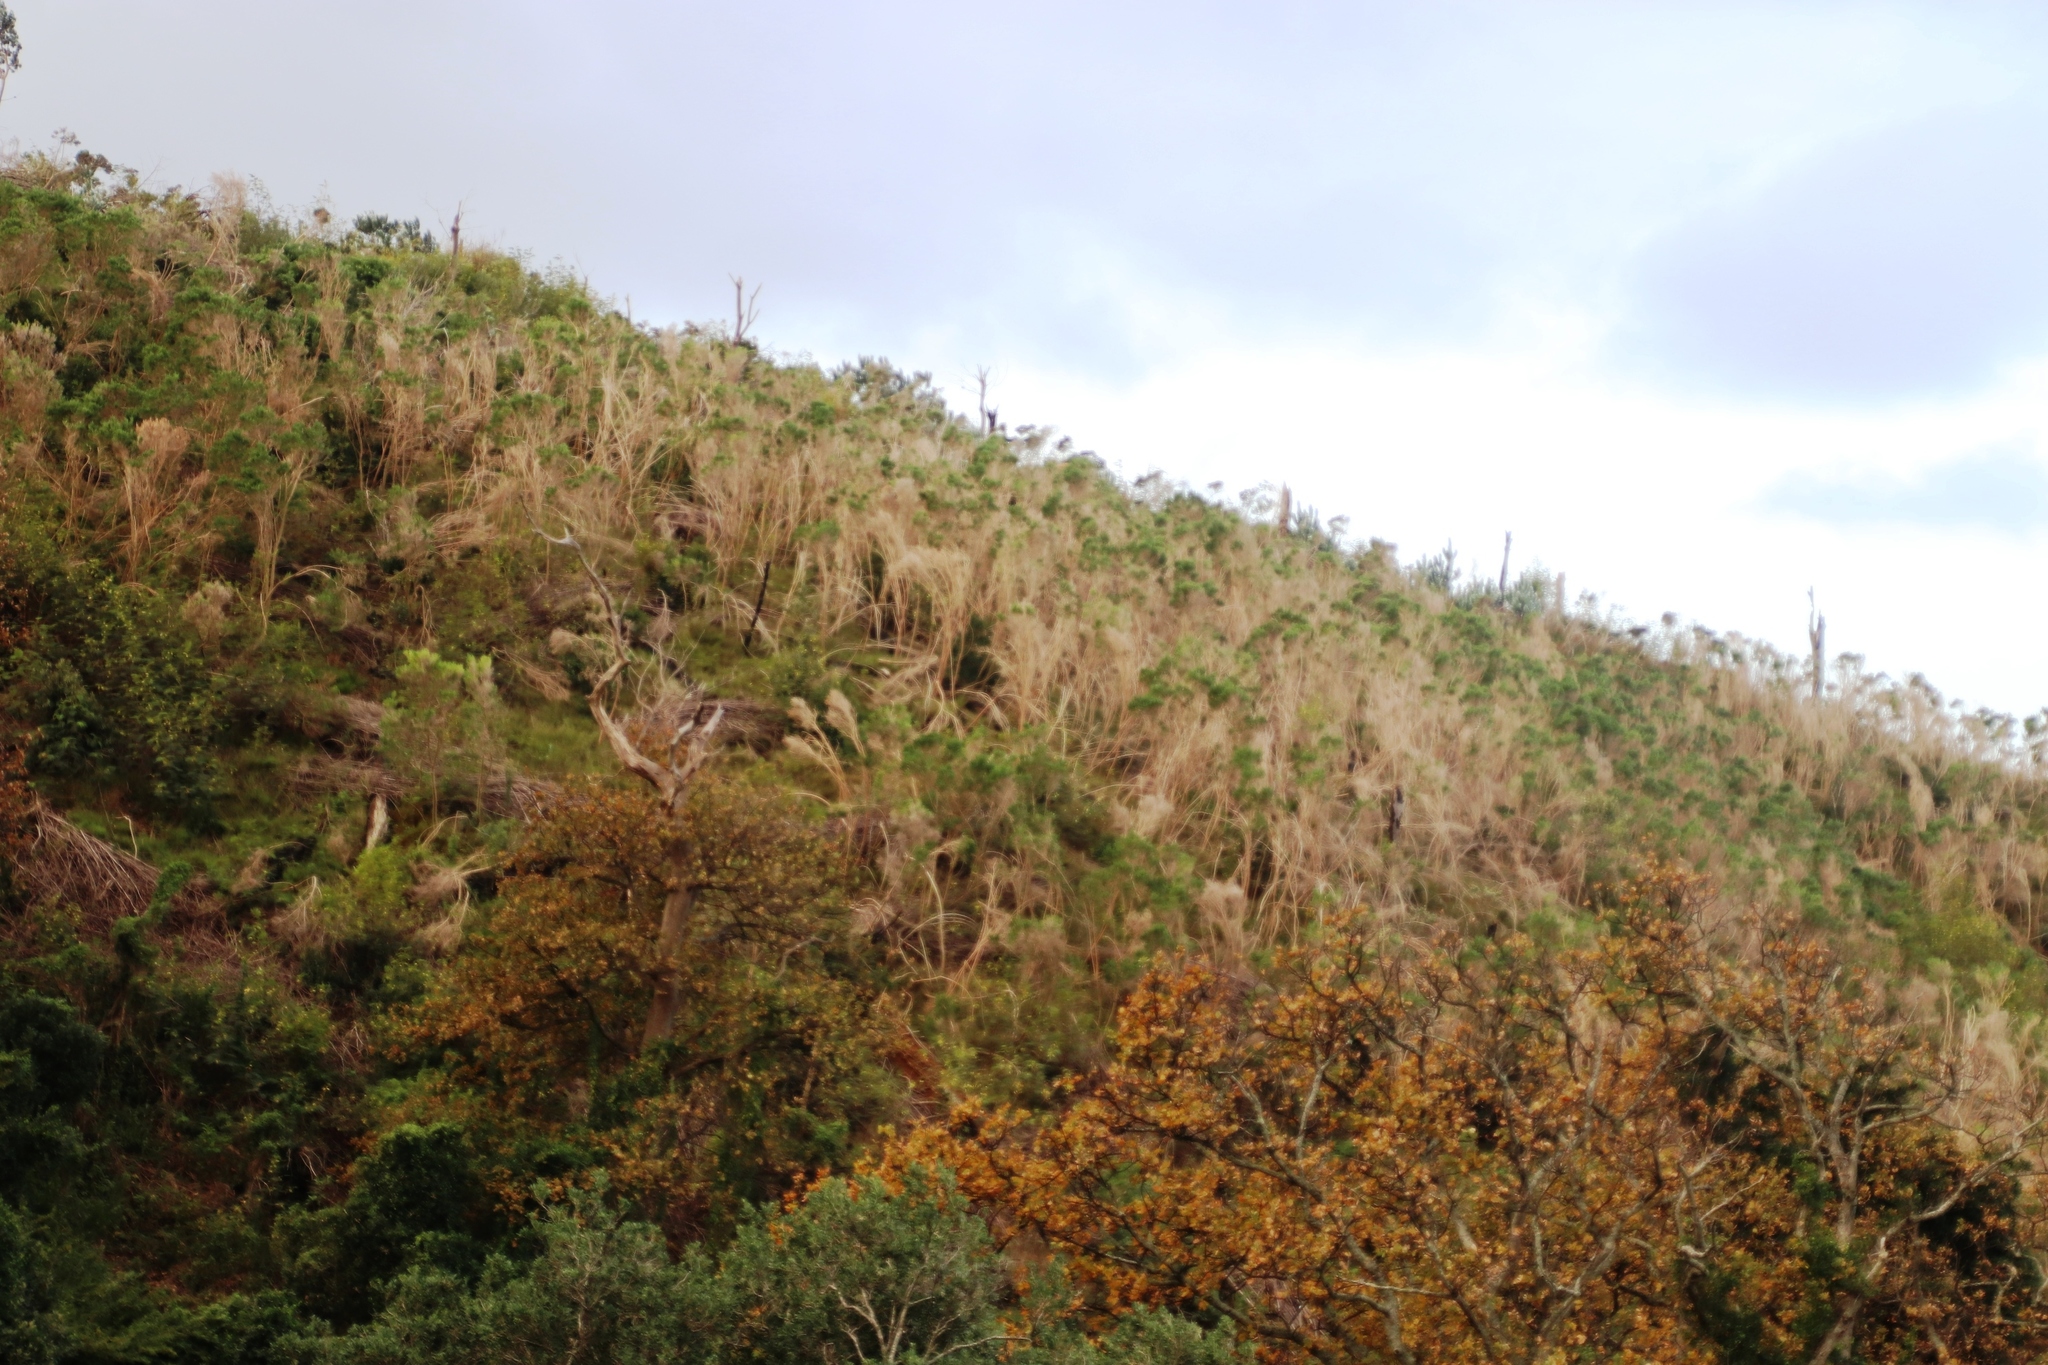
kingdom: Plantae
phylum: Tracheophyta
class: Magnoliopsida
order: Fabales
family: Fabaceae
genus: Aspalathus
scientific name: Aspalathus chenopoda
